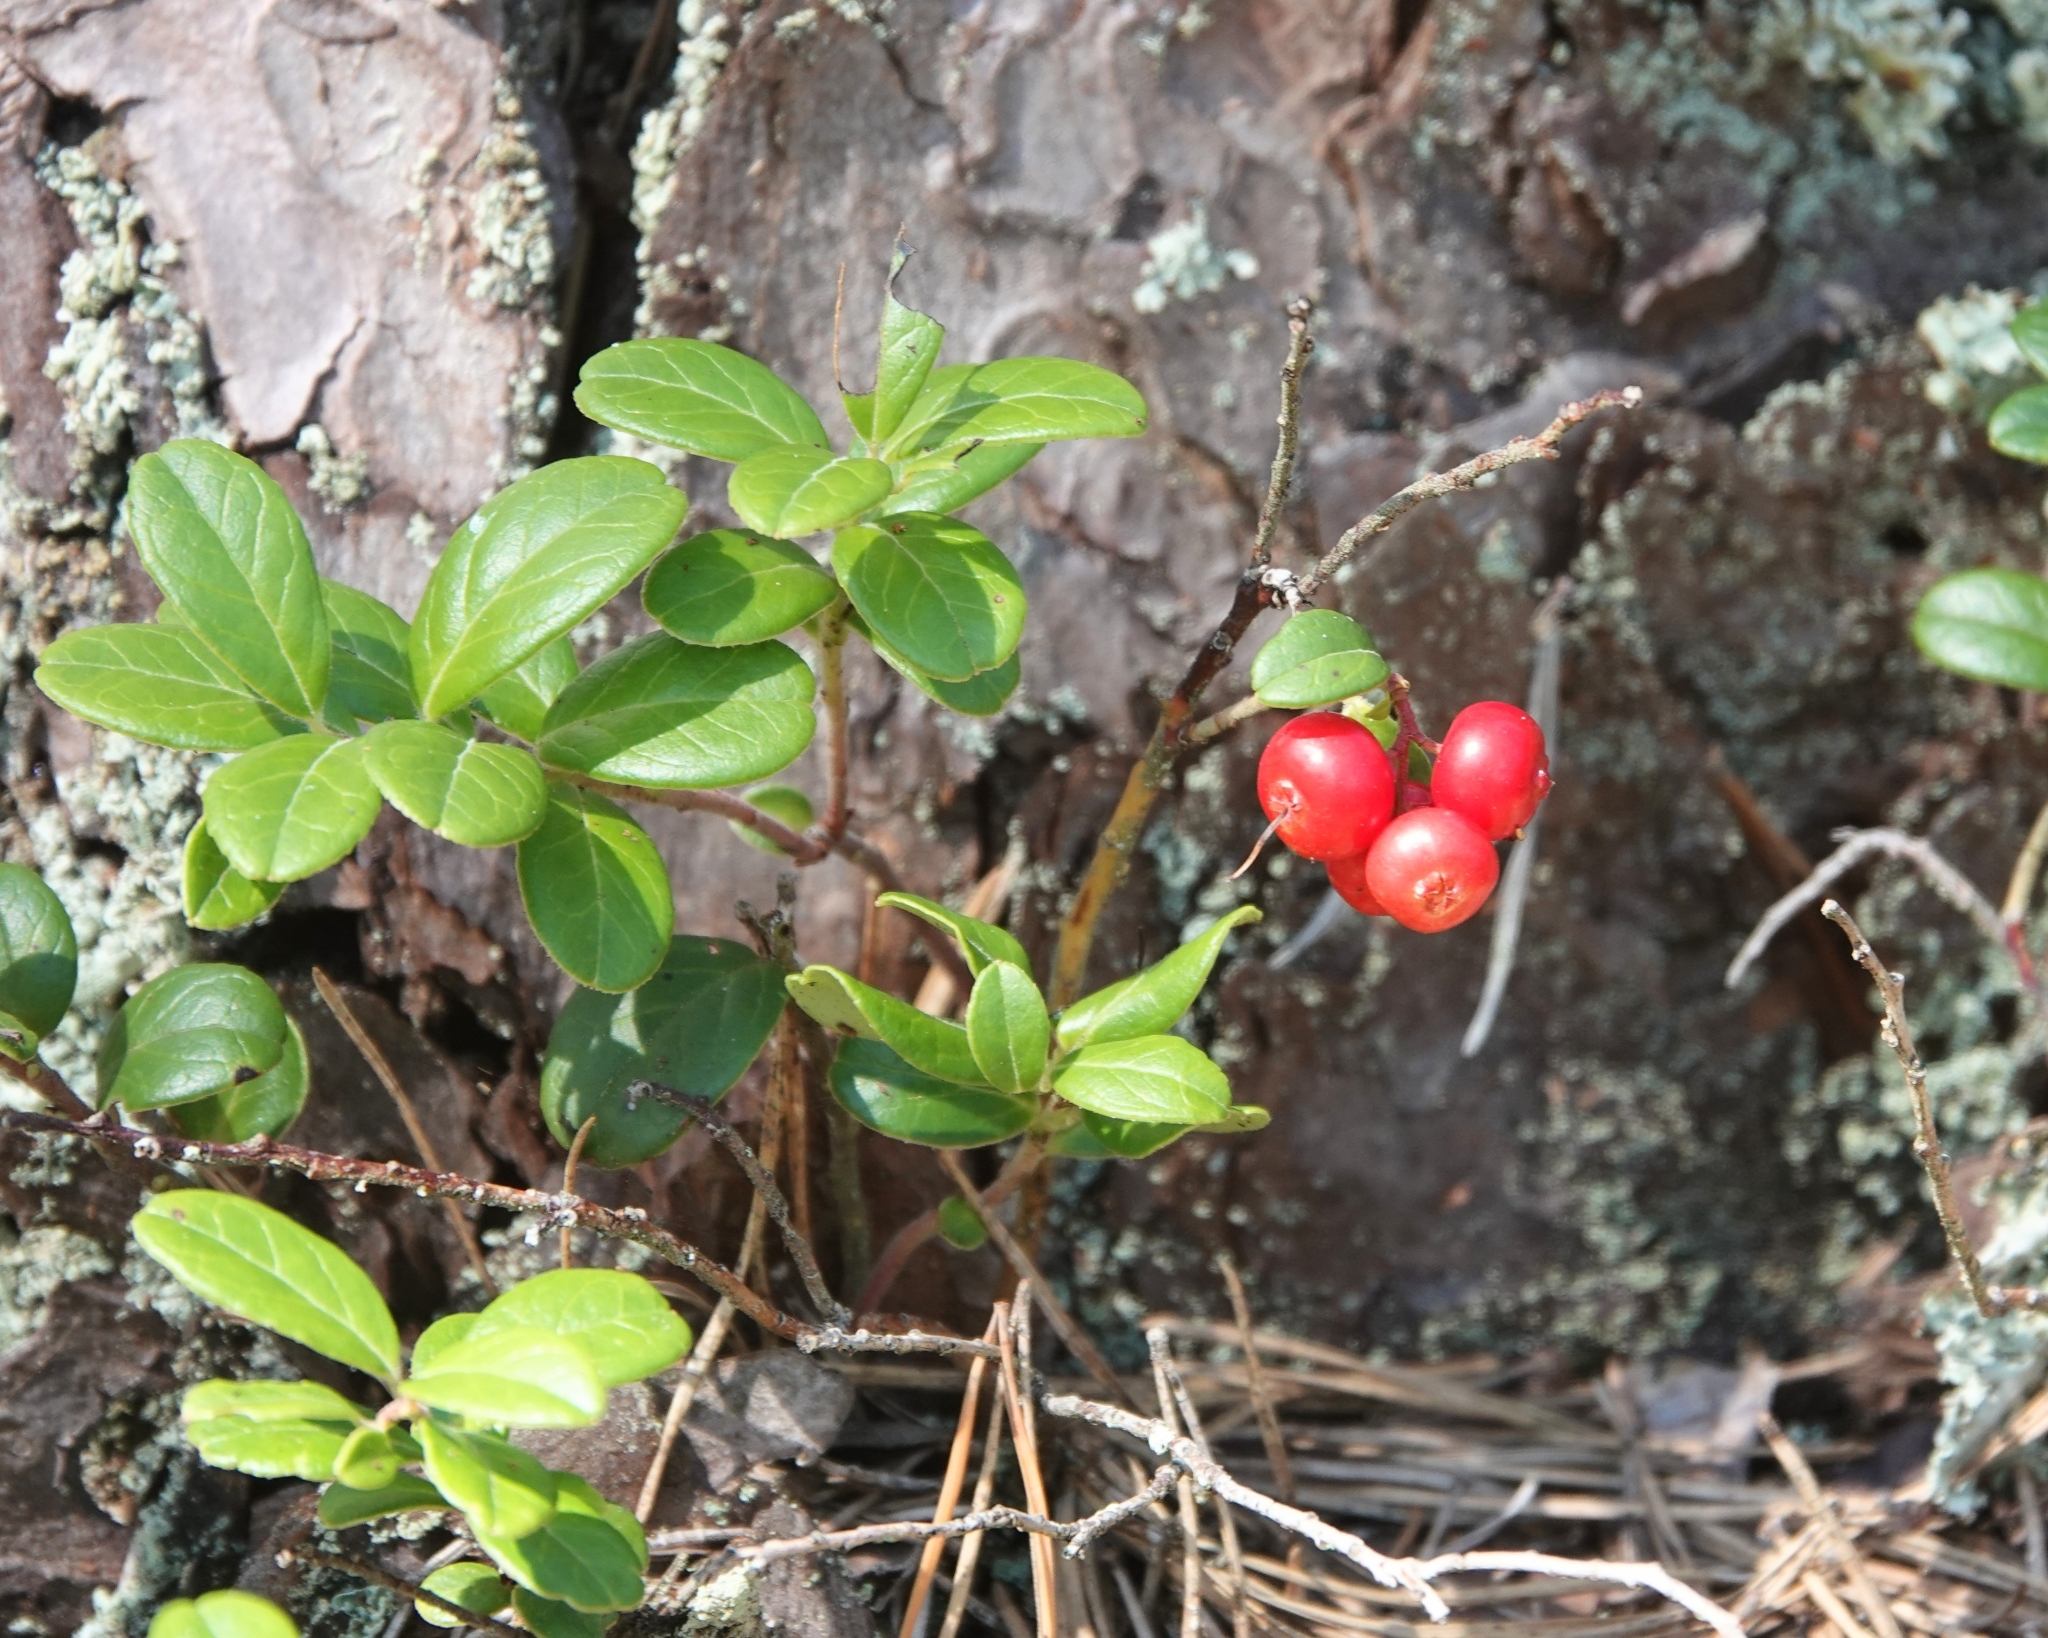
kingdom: Plantae
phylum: Tracheophyta
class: Magnoliopsida
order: Ericales
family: Ericaceae
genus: Vaccinium
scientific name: Vaccinium vitis-idaea
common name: Cowberry
